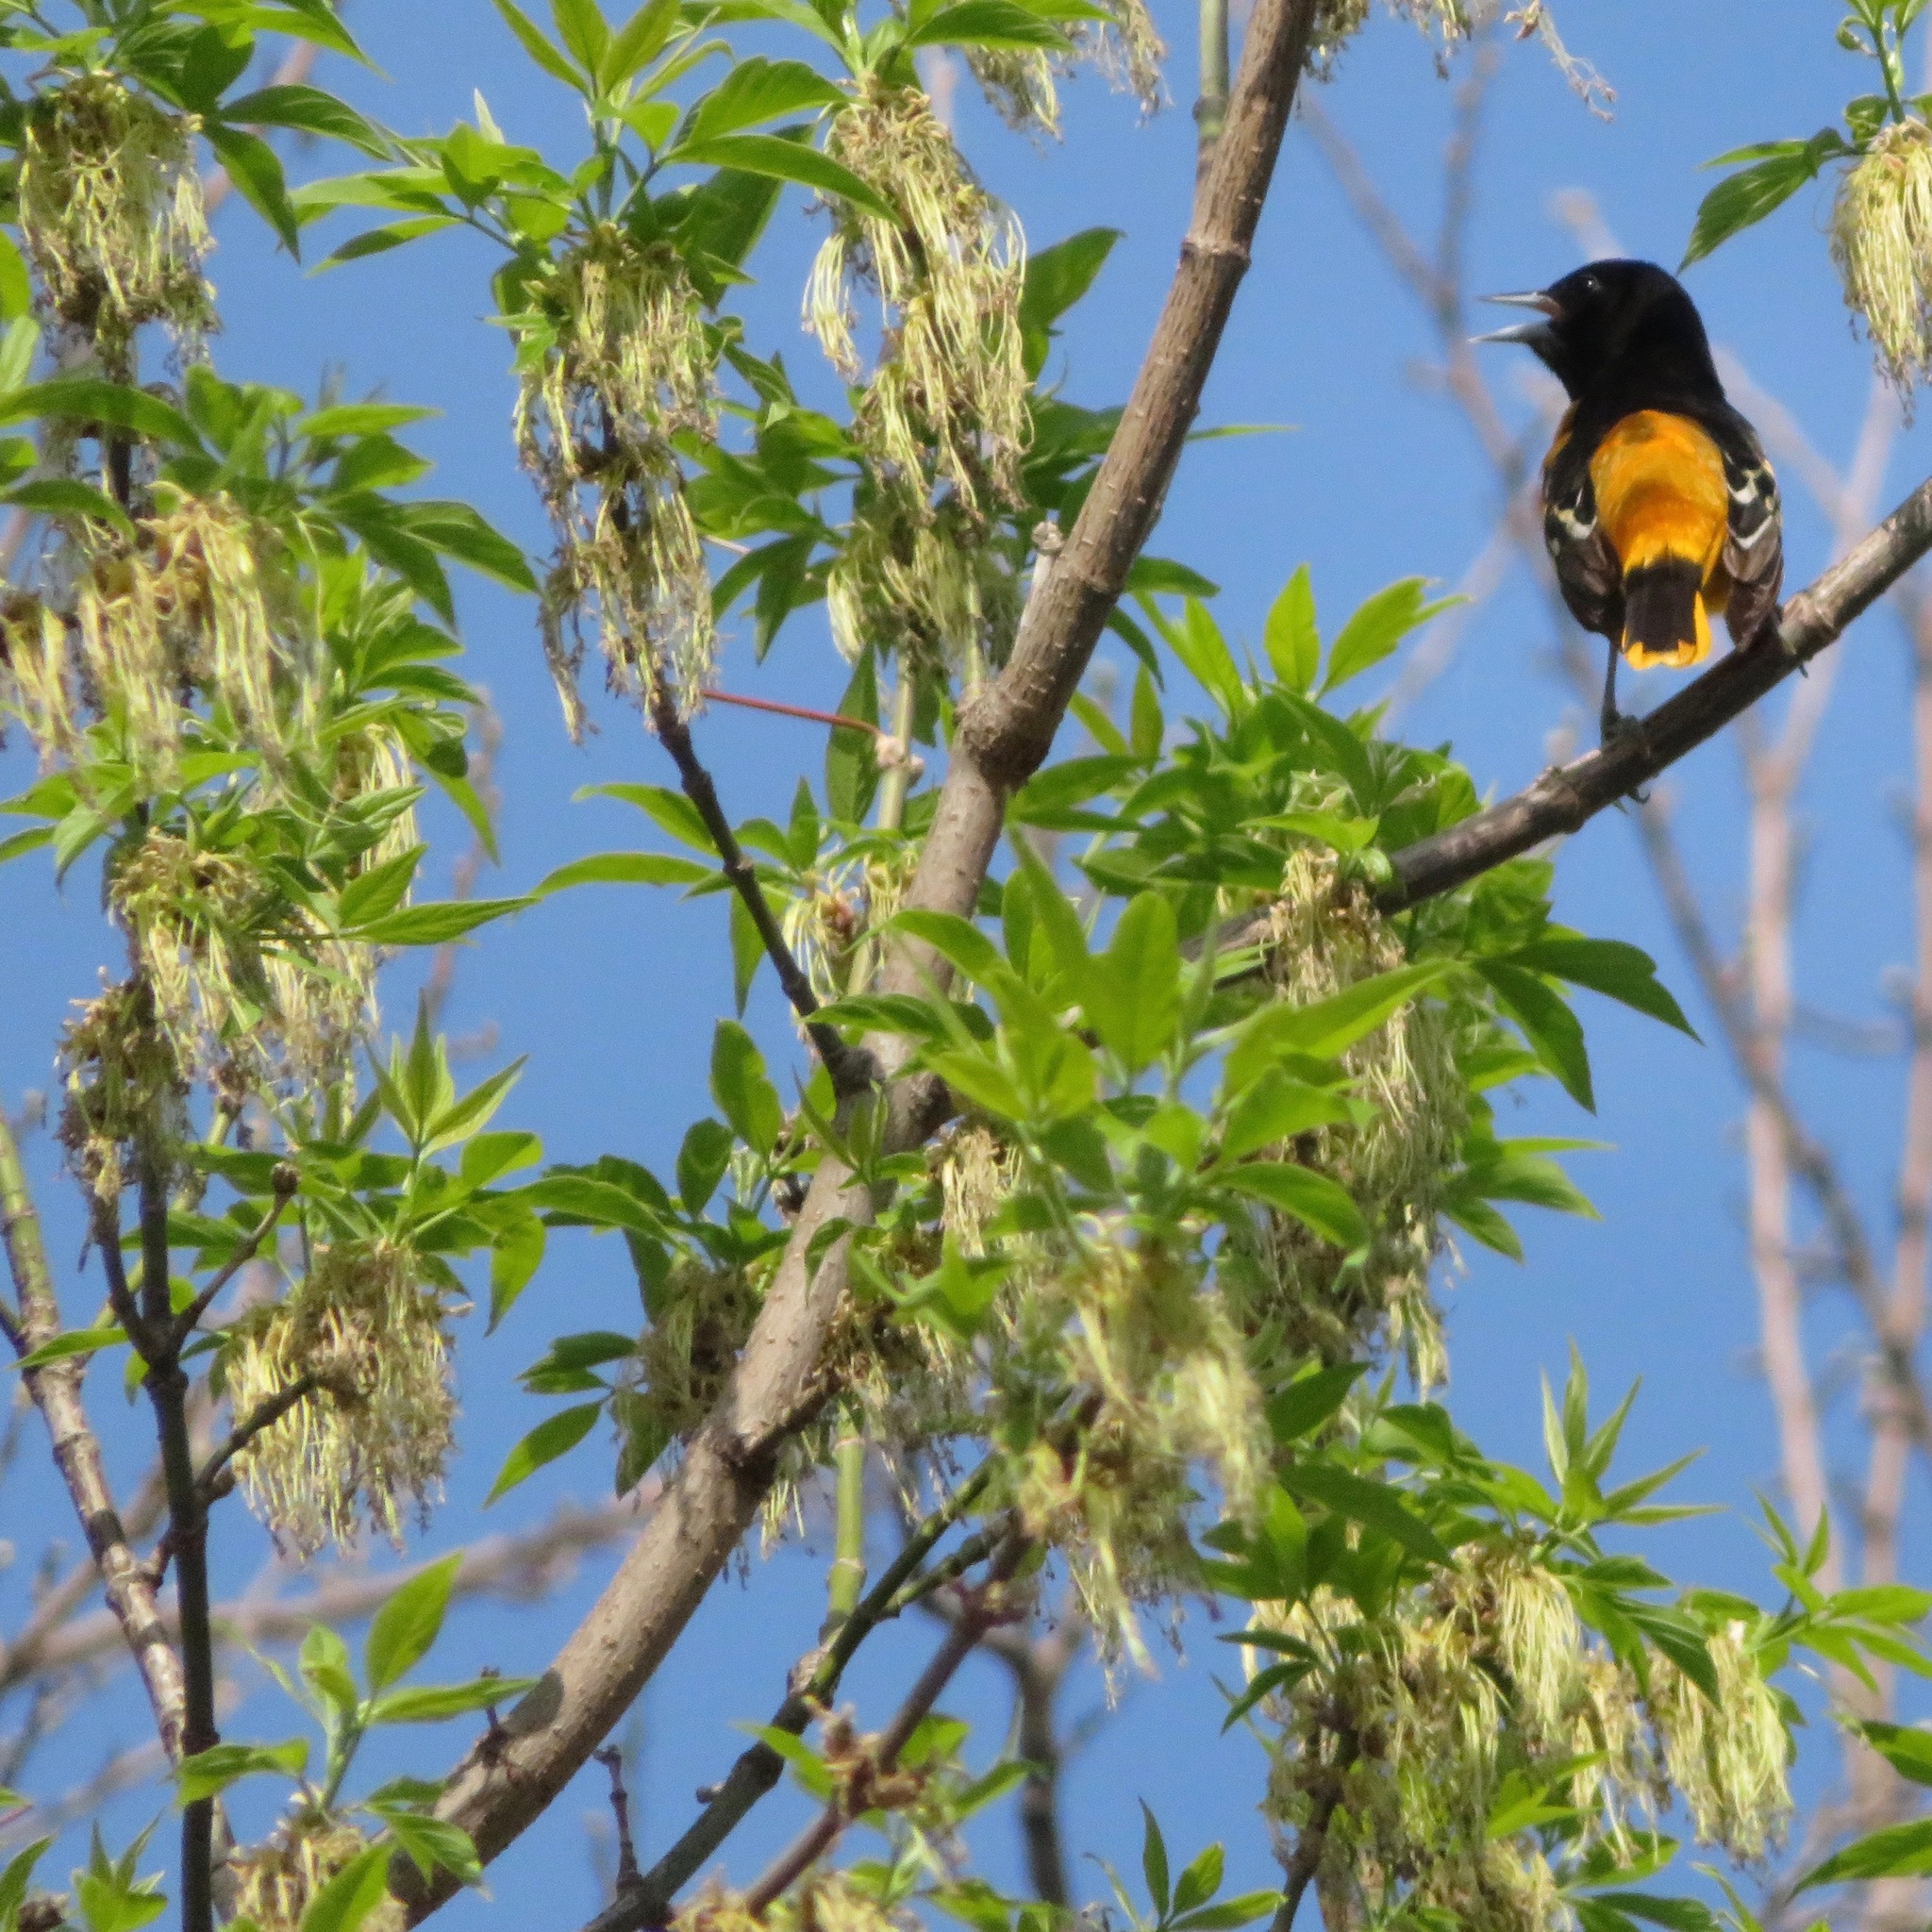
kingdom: Plantae
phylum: Tracheophyta
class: Magnoliopsida
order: Sapindales
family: Sapindaceae
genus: Acer
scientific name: Acer negundo
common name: Ashleaf maple
